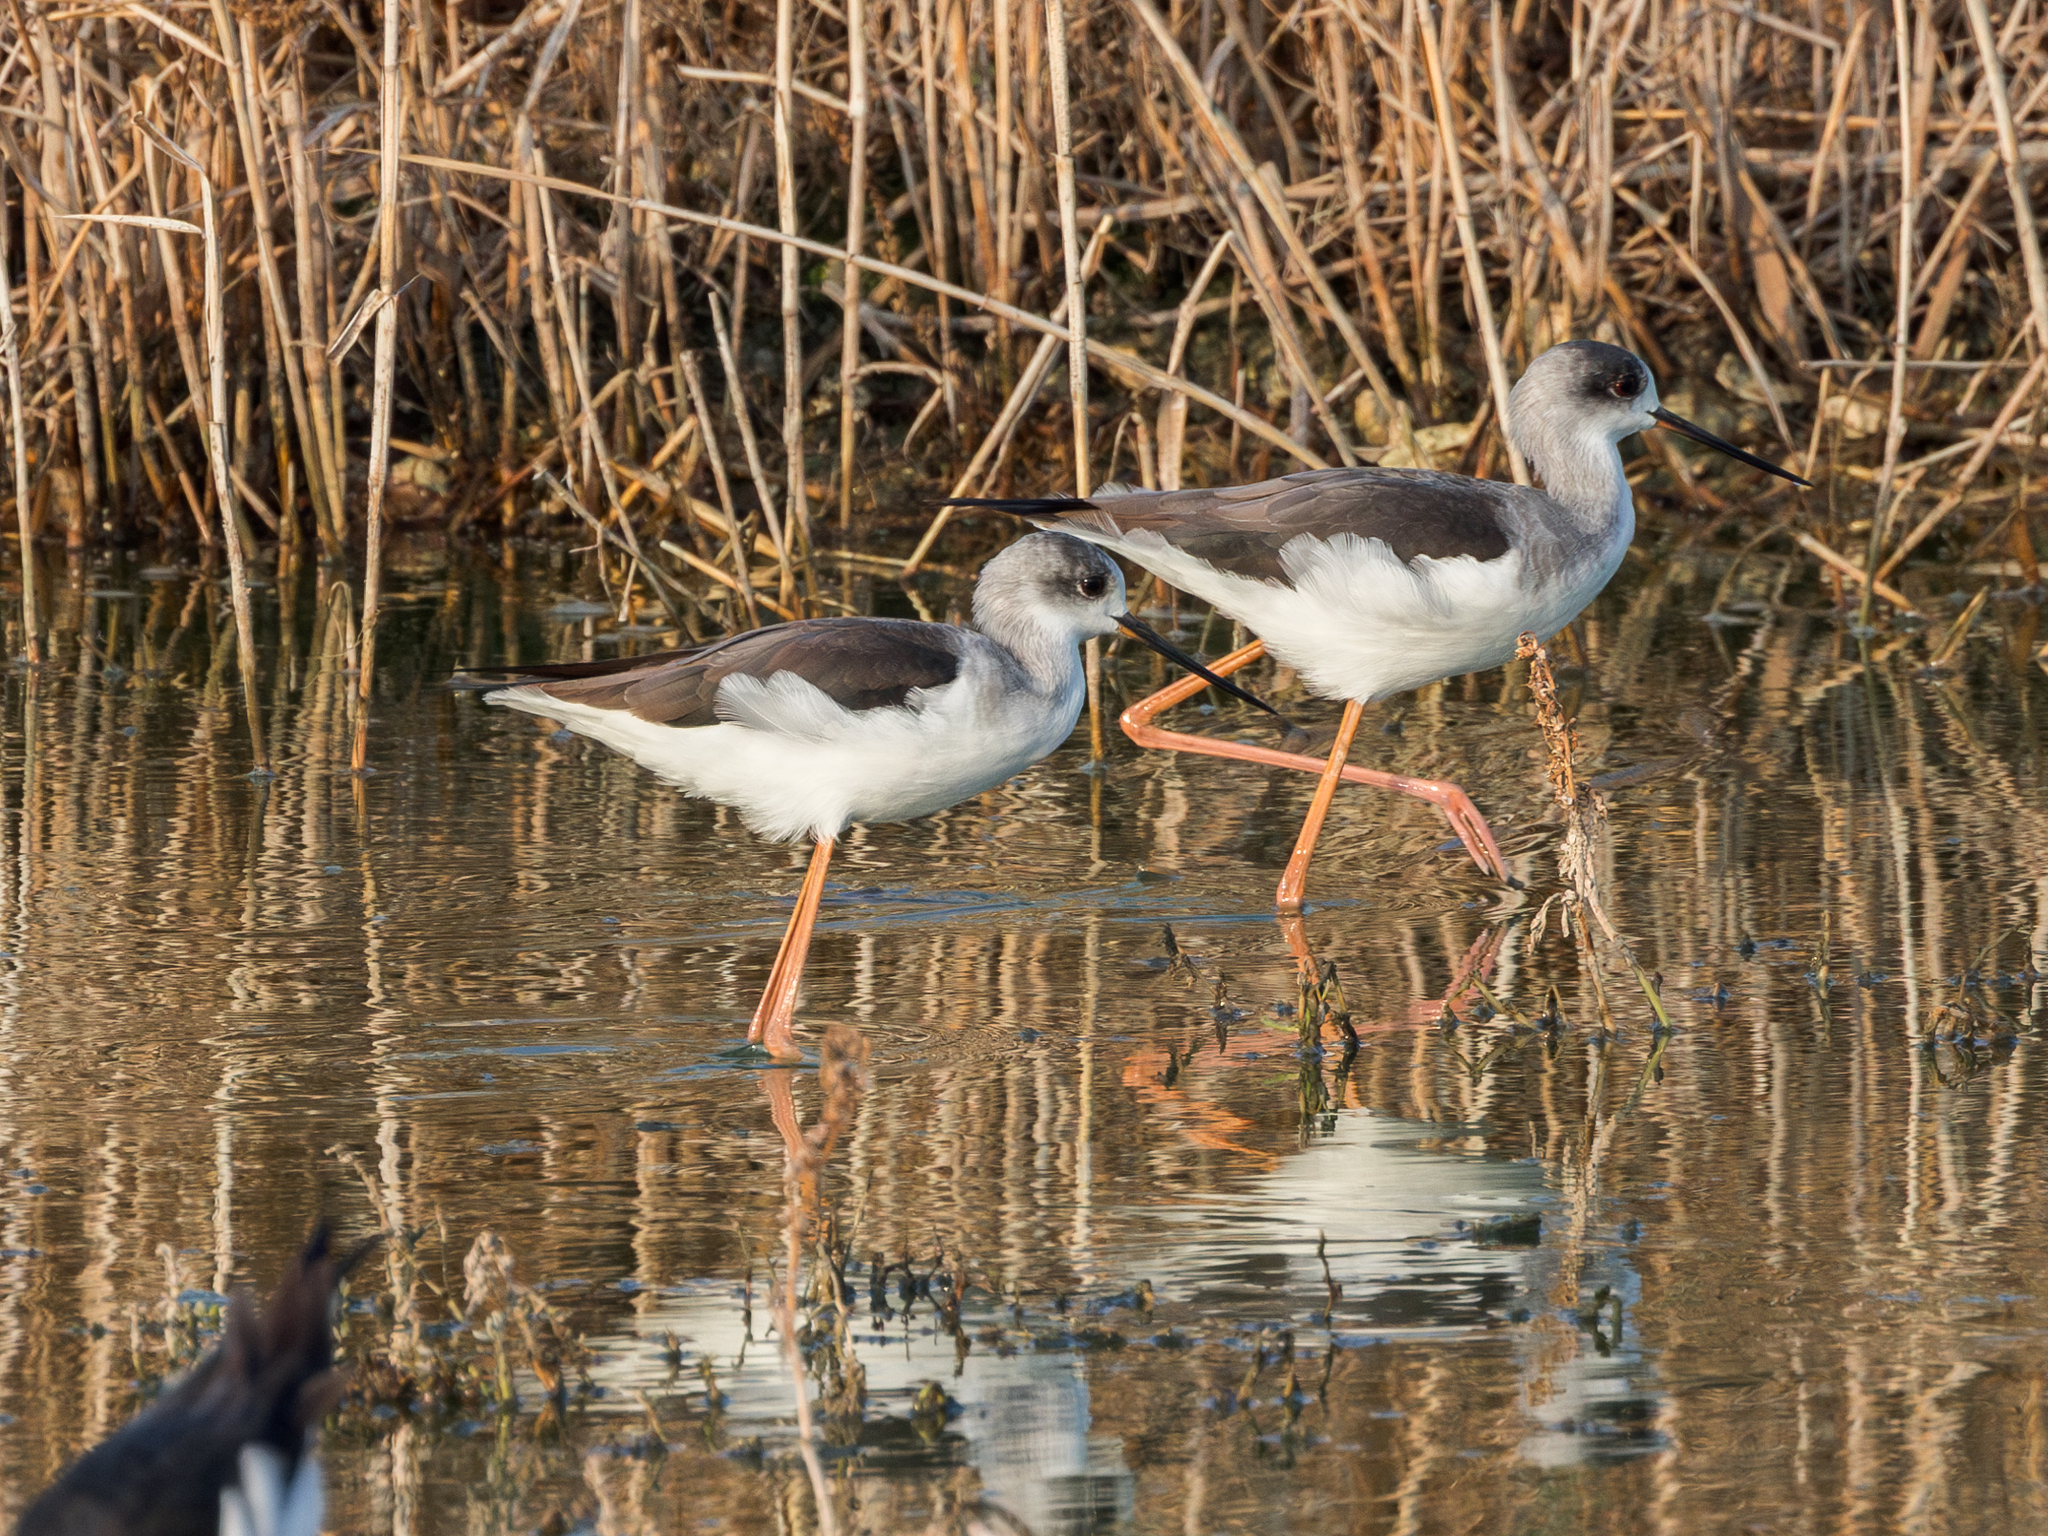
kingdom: Animalia
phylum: Chordata
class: Aves
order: Charadriiformes
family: Recurvirostridae
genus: Himantopus
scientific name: Himantopus himantopus
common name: Black-winged stilt
